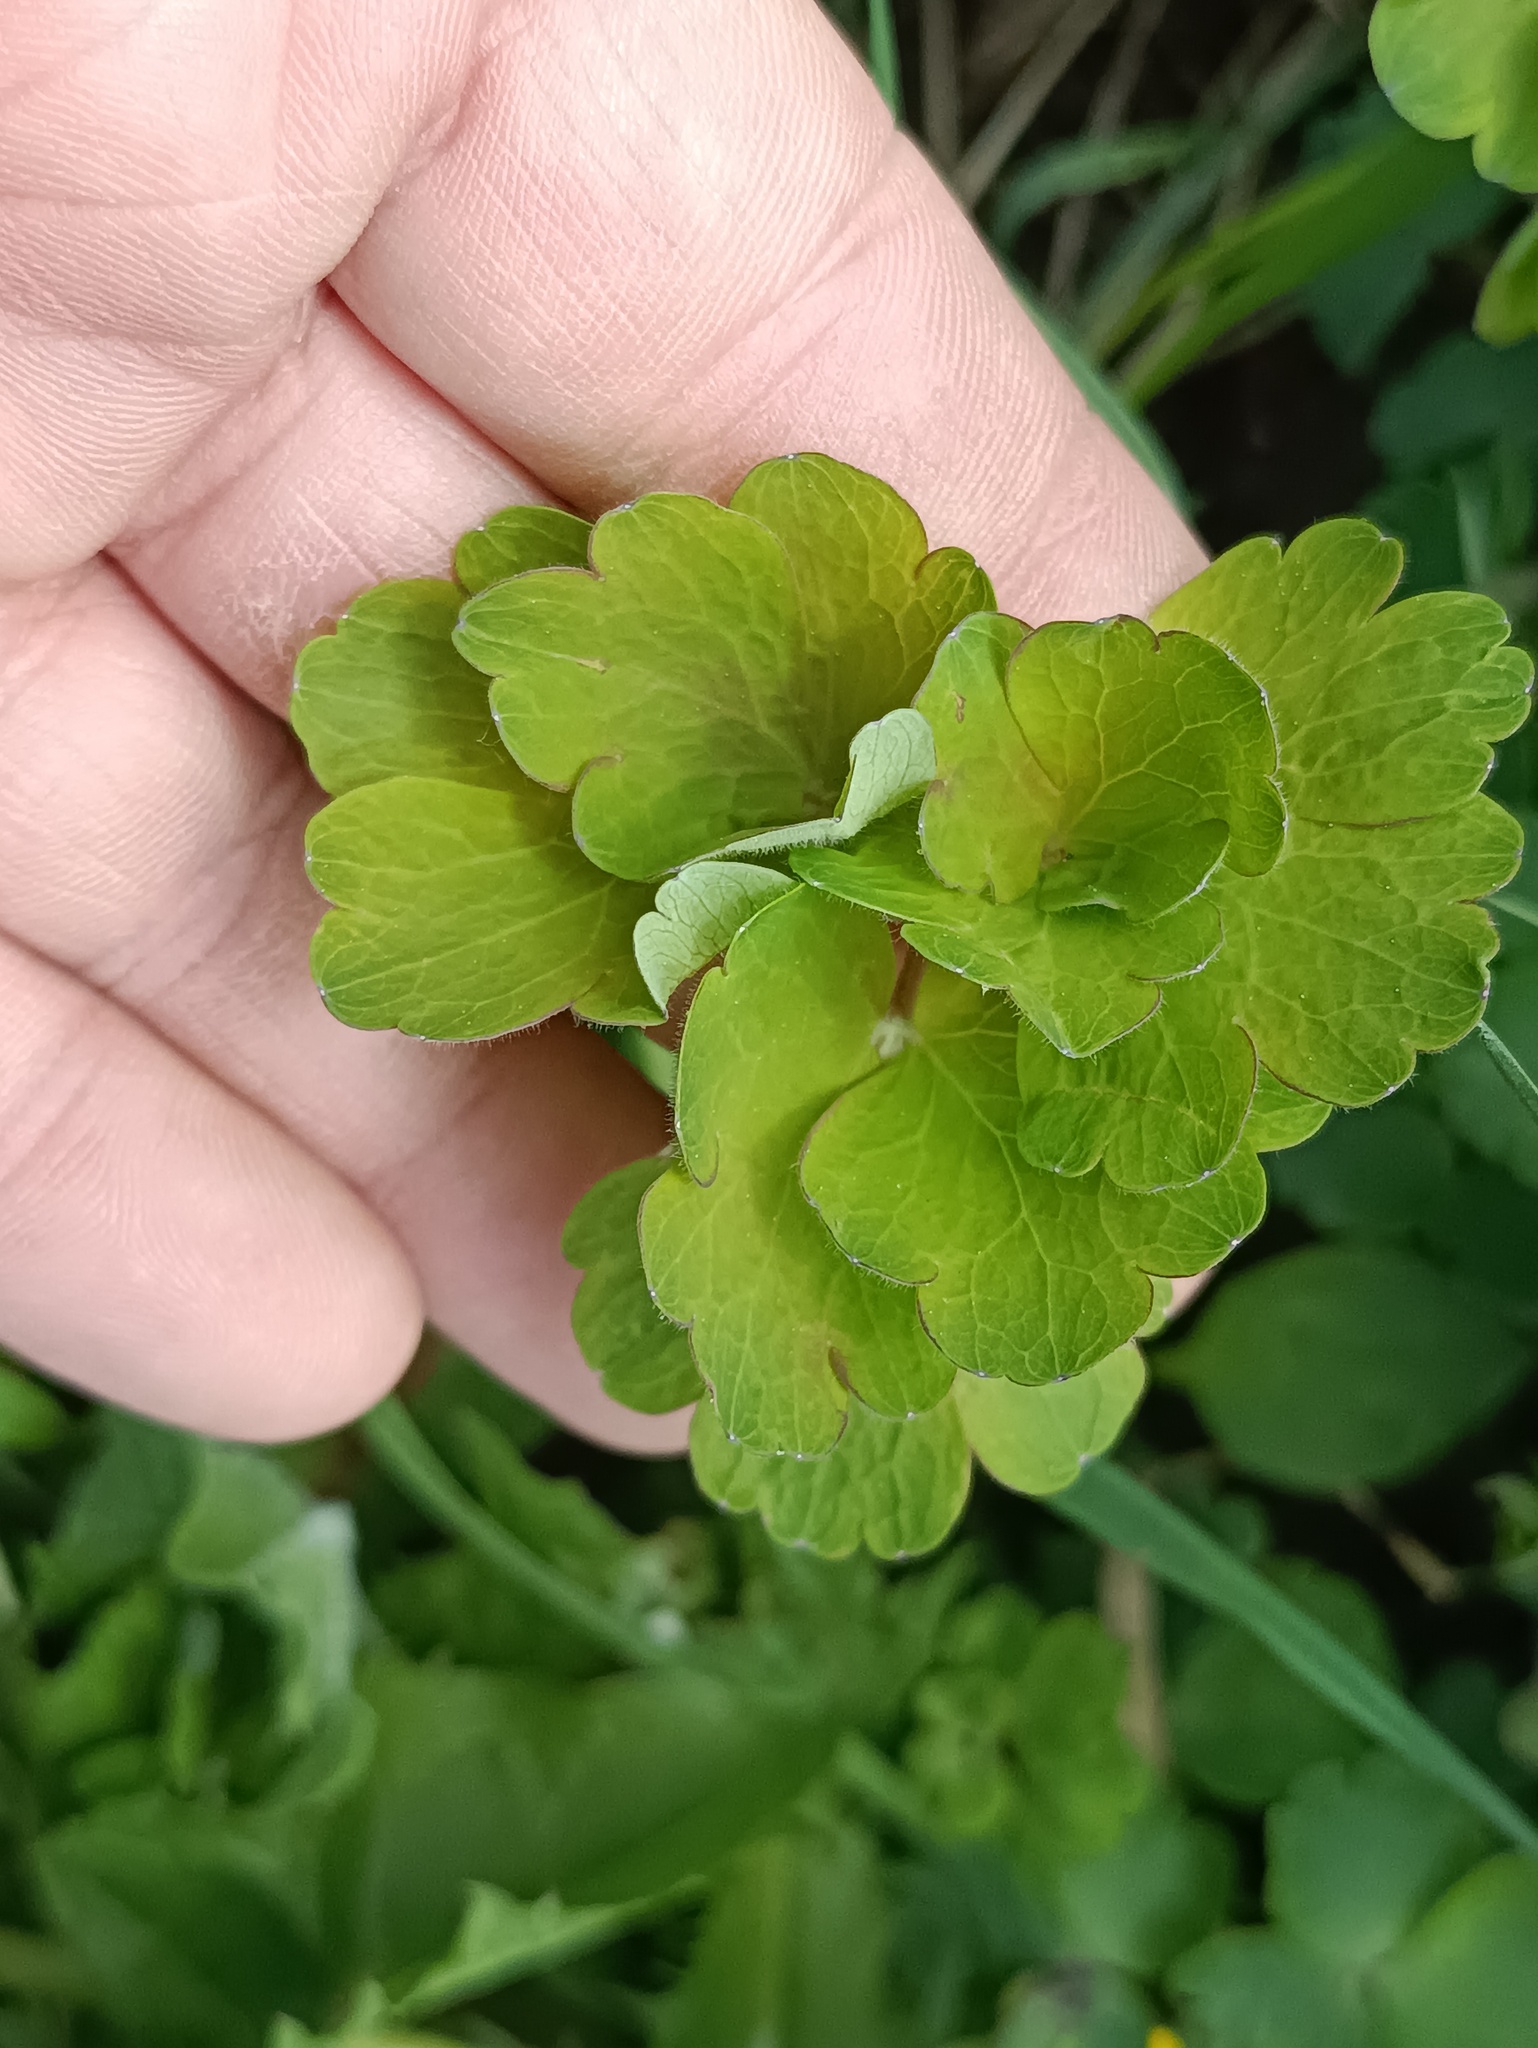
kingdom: Plantae
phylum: Tracheophyta
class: Magnoliopsida
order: Ranunculales
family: Ranunculaceae
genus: Aquilegia
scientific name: Aquilegia vulgaris
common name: Columbine
